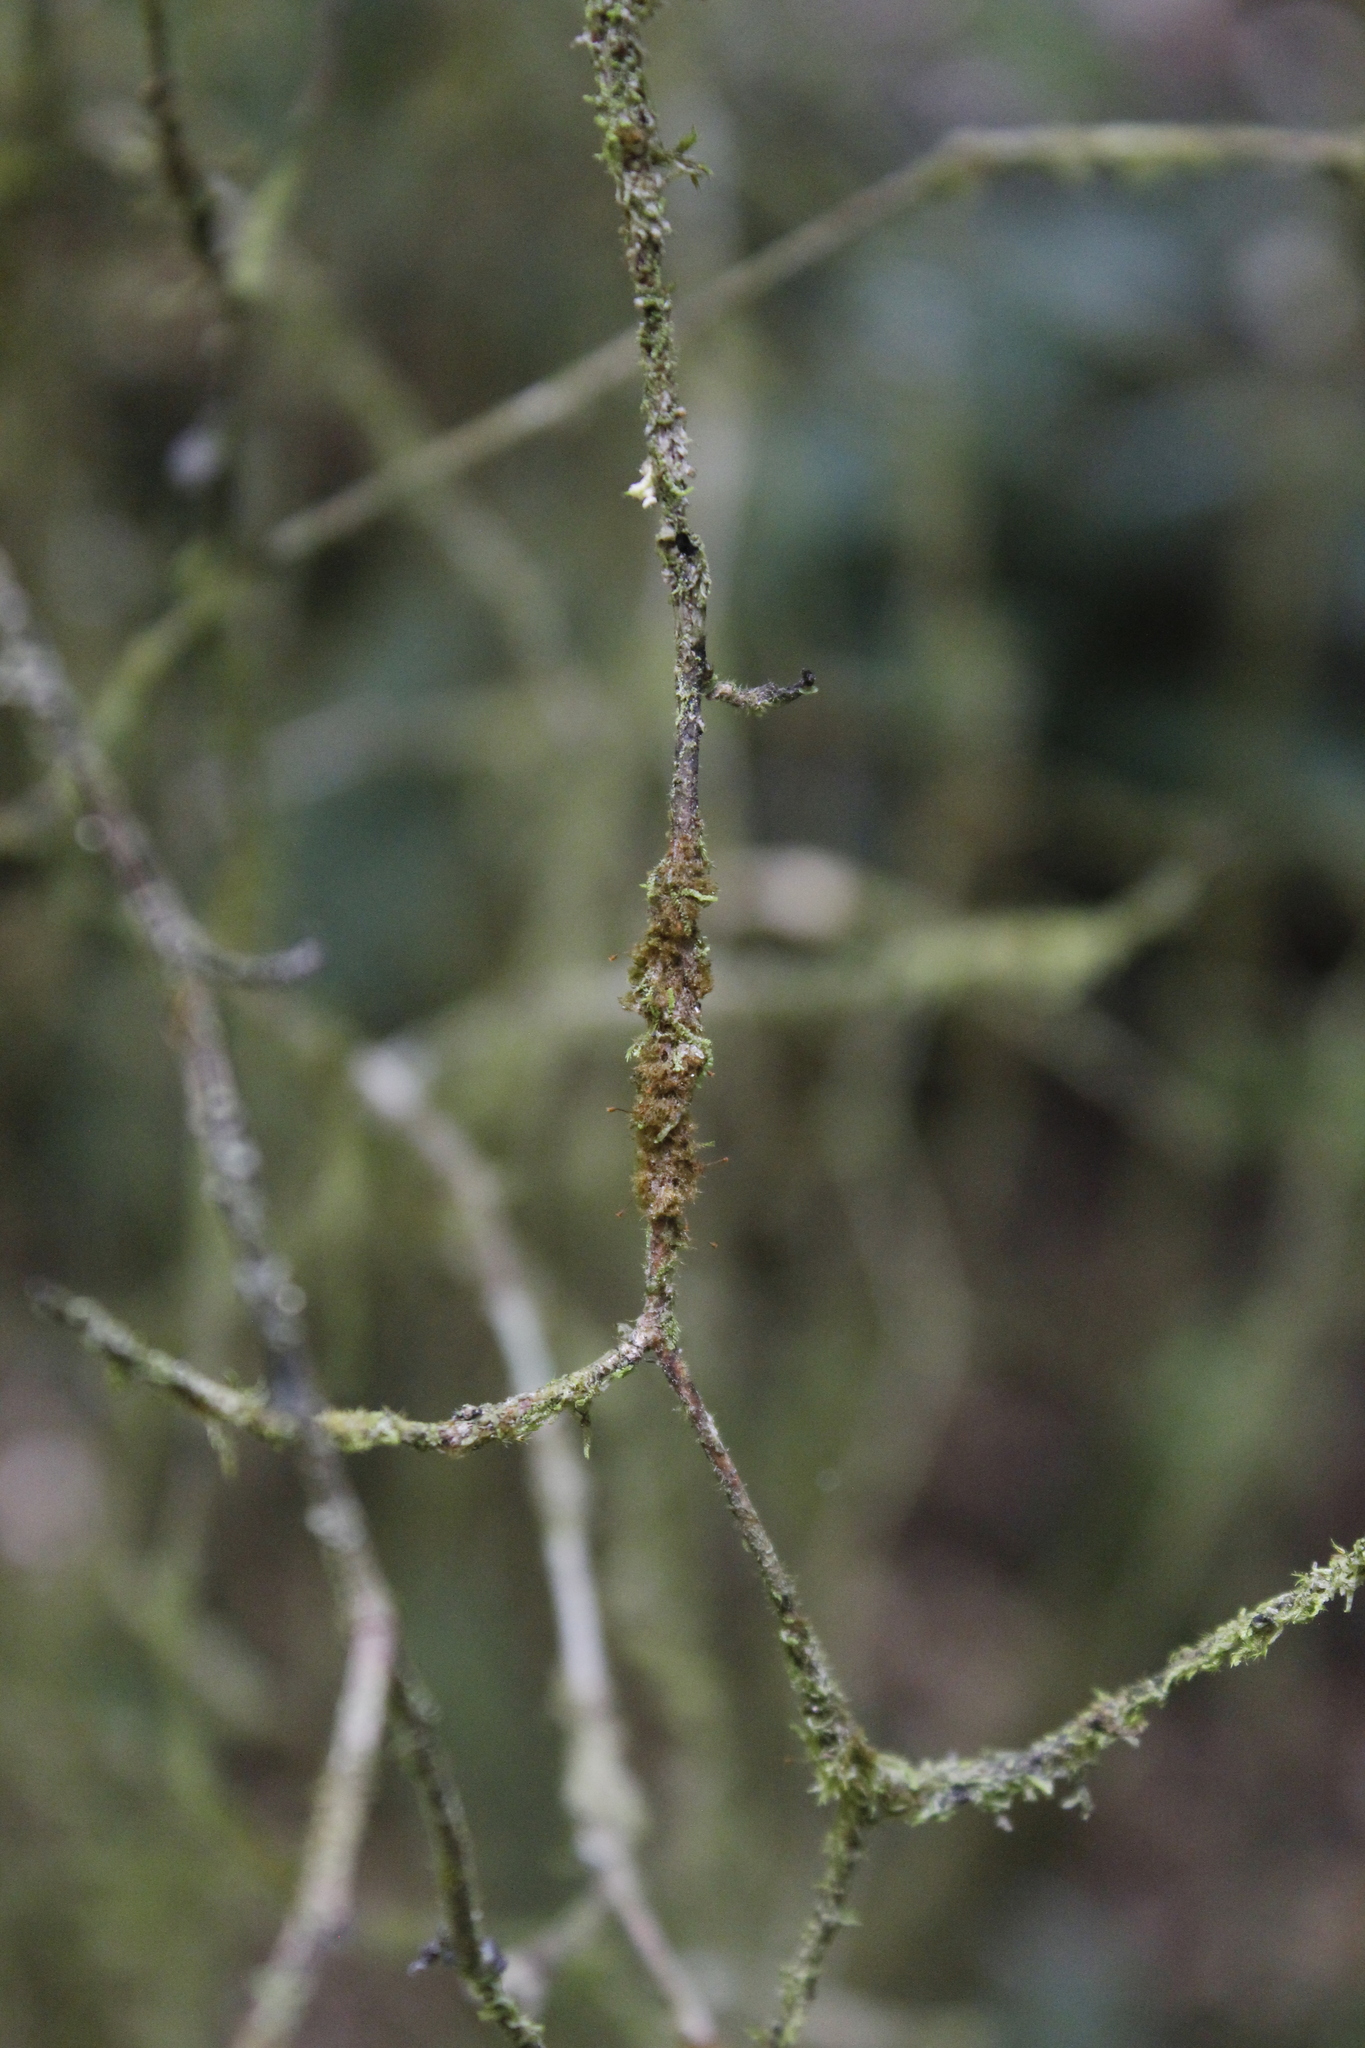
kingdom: Plantae
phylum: Bryophyta
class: Bryopsida
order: Hookeriales
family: Daltoniaceae
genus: Ephemeropsis
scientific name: Ephemeropsis trentepohlioides
